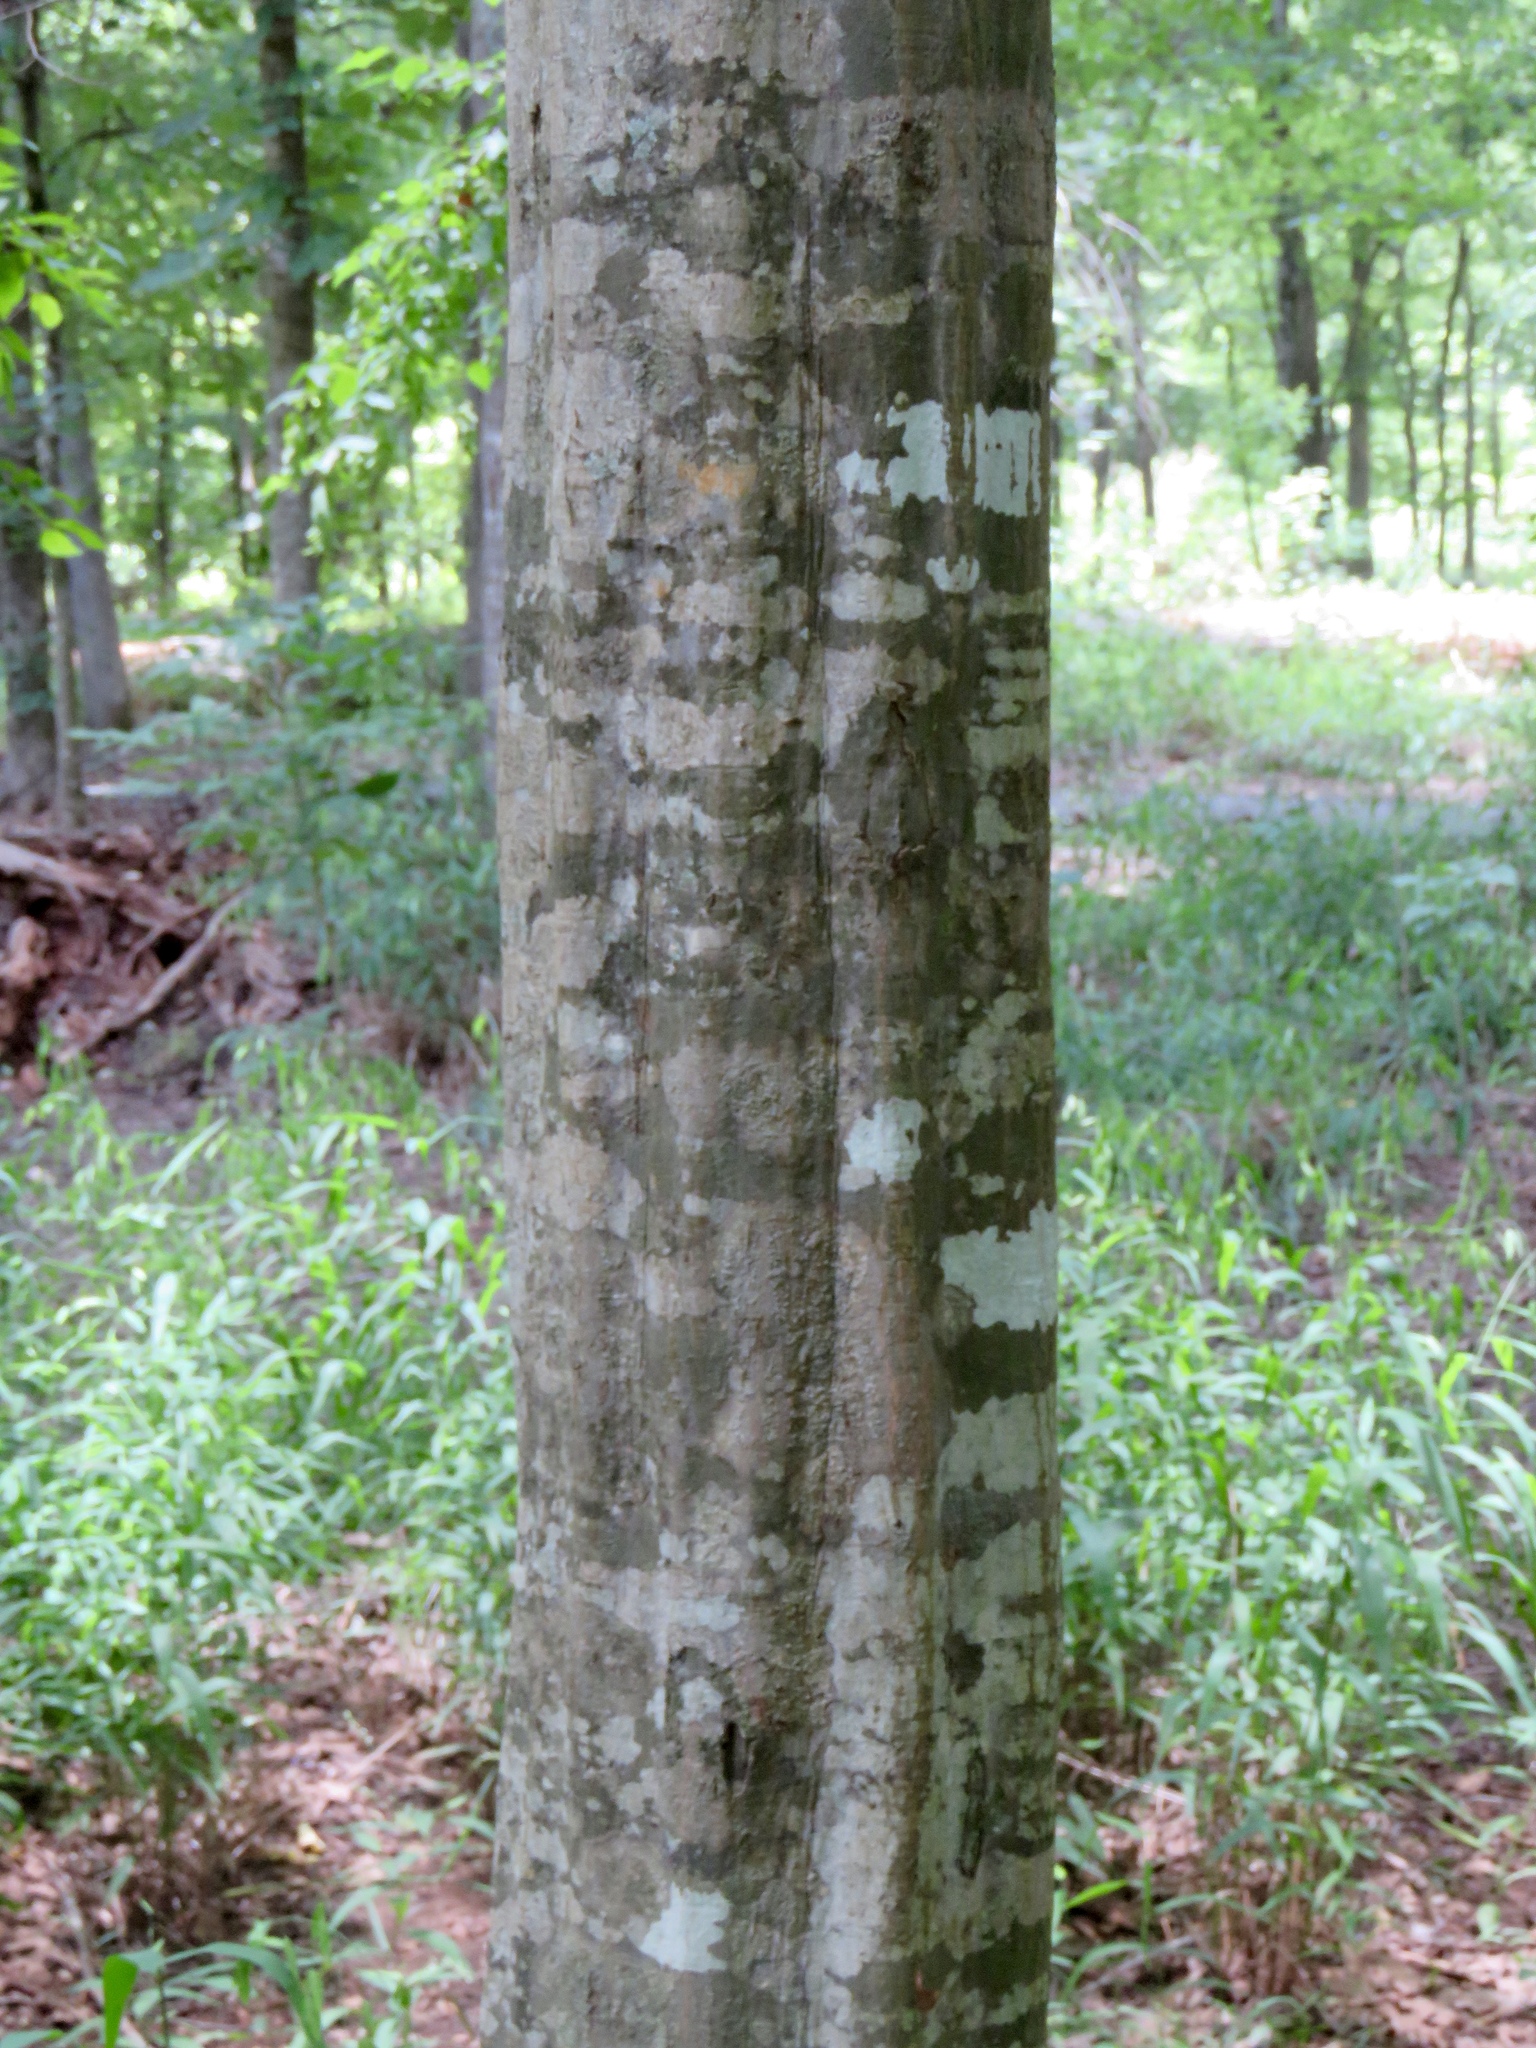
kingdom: Plantae
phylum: Tracheophyta
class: Magnoliopsida
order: Fagales
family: Betulaceae
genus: Carpinus
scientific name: Carpinus caroliniana
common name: American hornbeam
